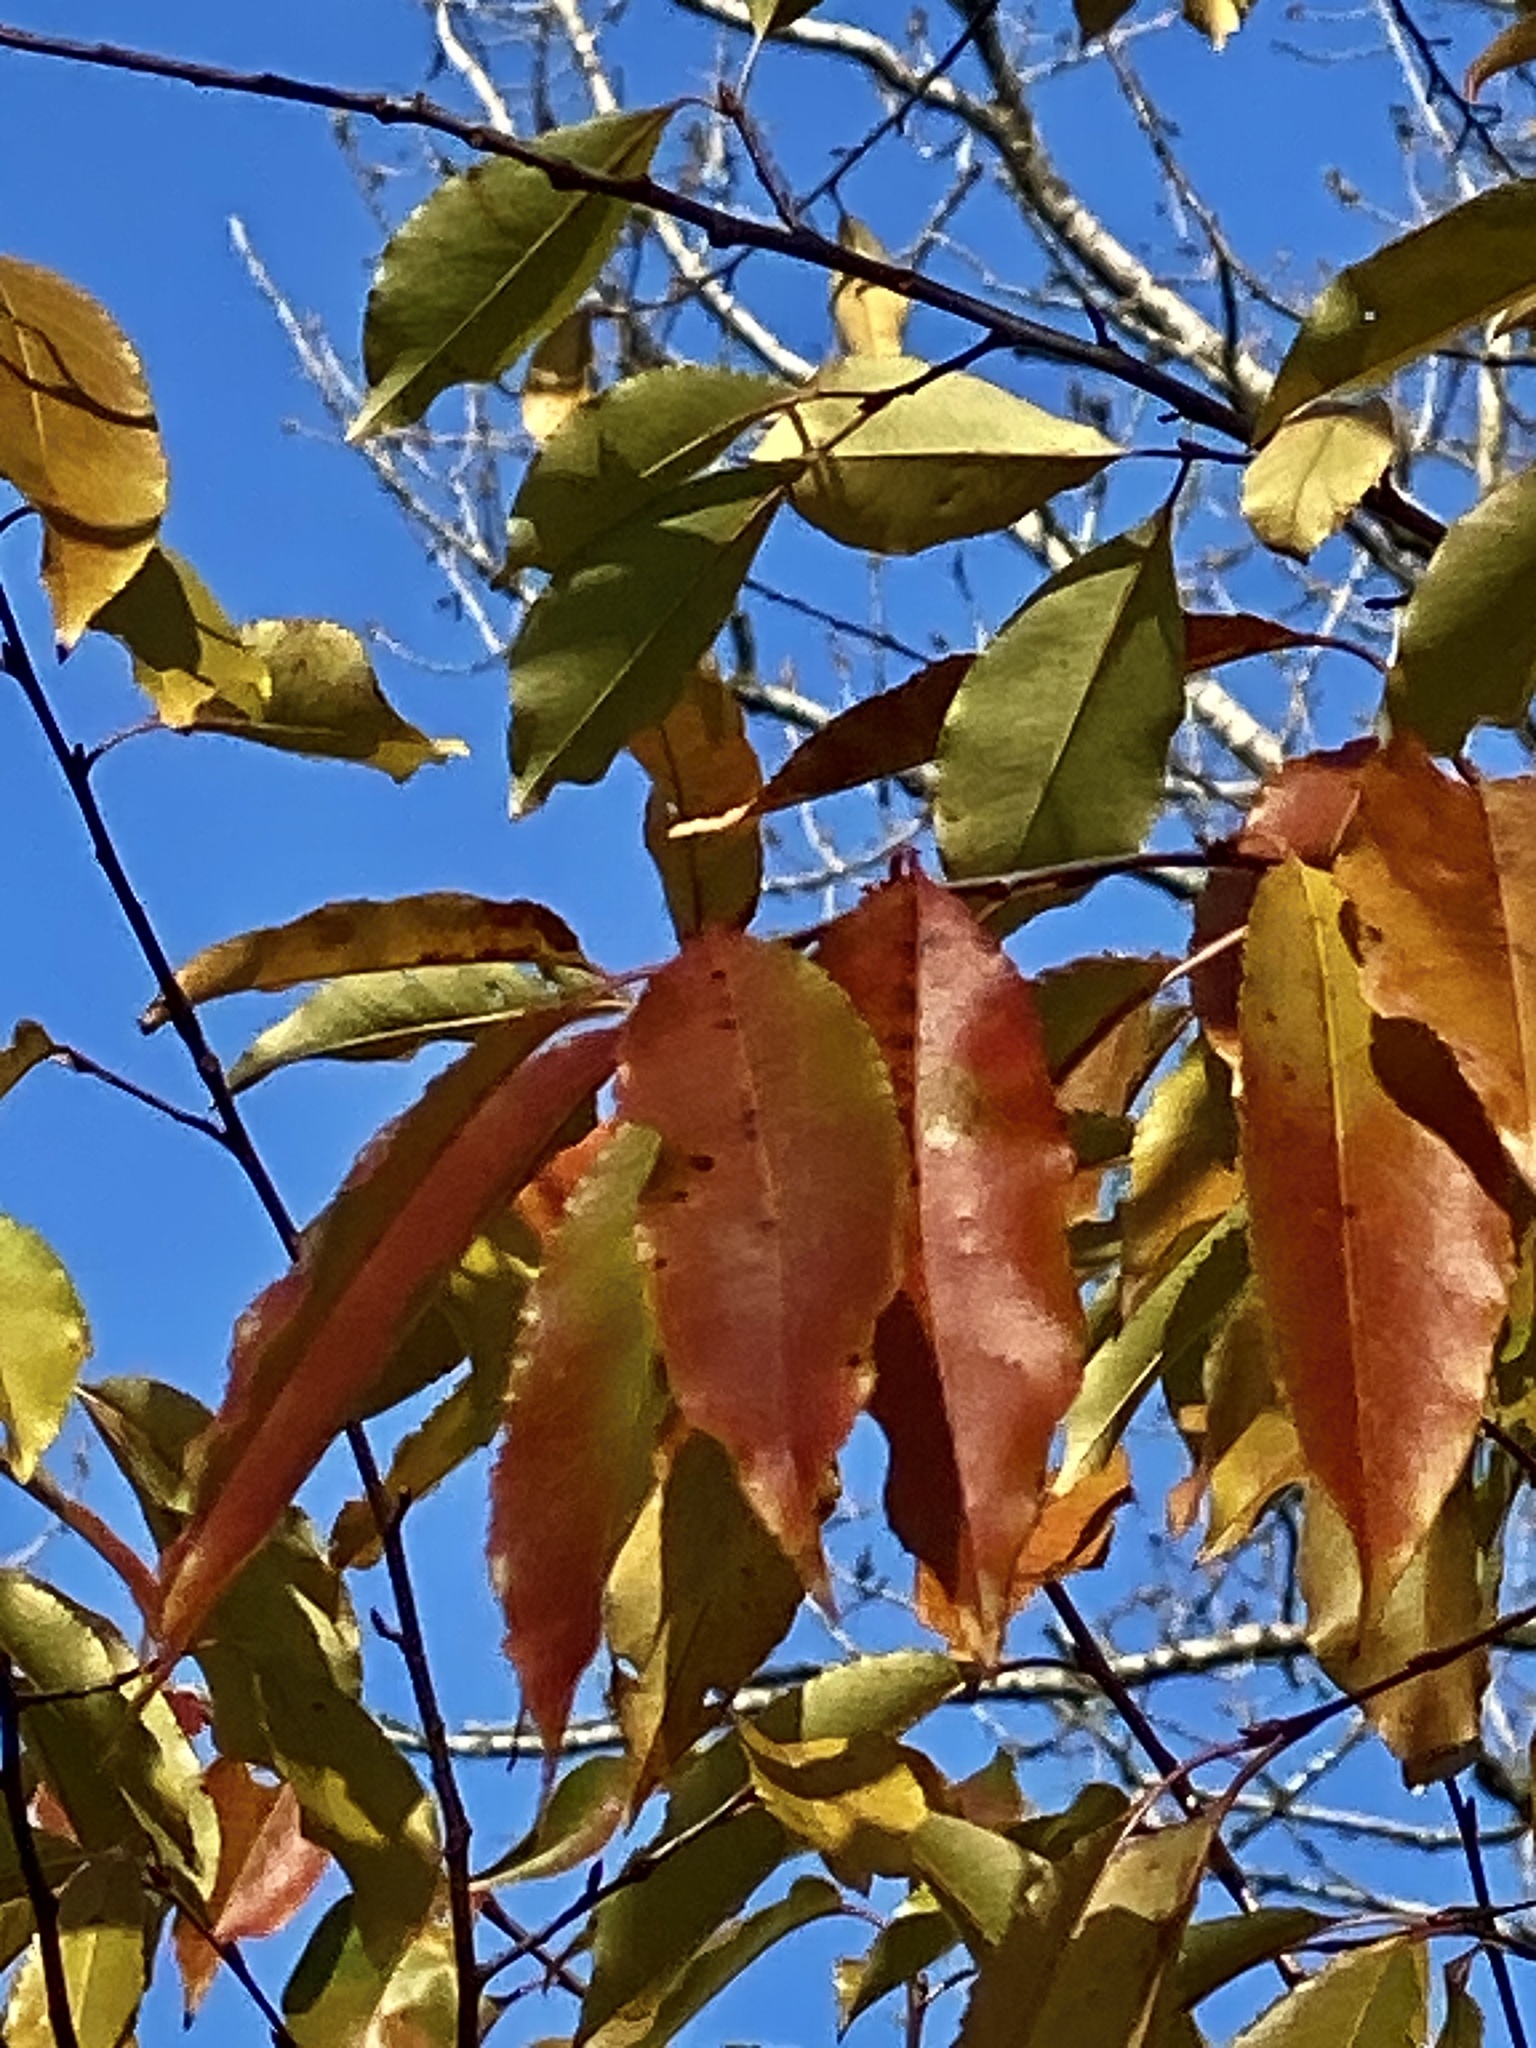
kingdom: Plantae
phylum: Tracheophyta
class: Magnoliopsida
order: Rosales
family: Rosaceae
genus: Prunus
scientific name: Prunus serotina
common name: Black cherry
